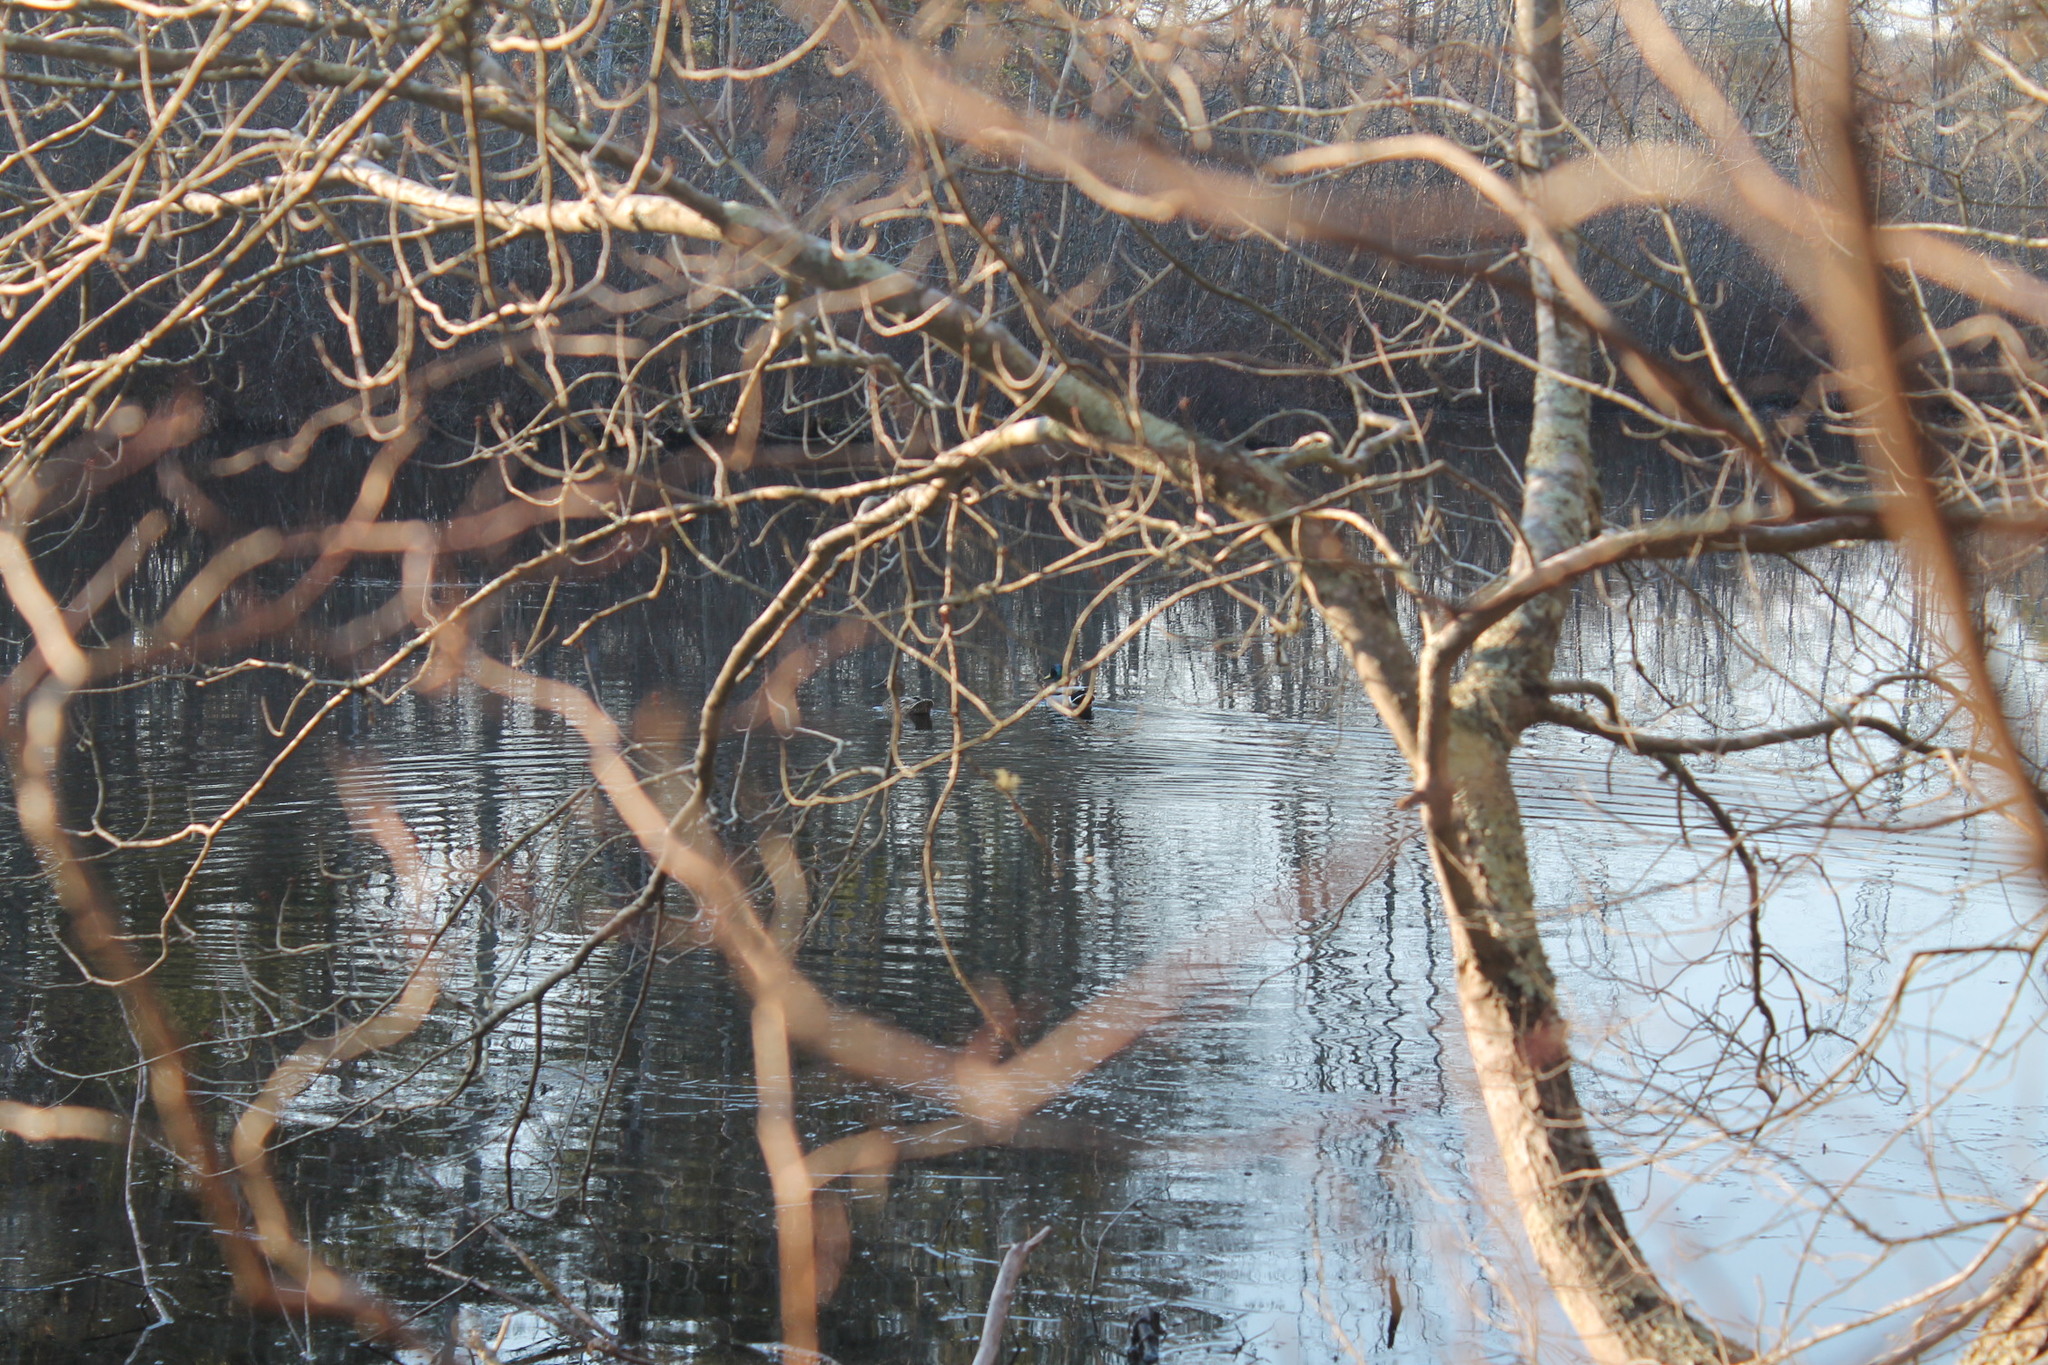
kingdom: Animalia
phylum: Chordata
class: Aves
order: Anseriformes
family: Anatidae
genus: Anas
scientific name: Anas platyrhynchos
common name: Mallard
